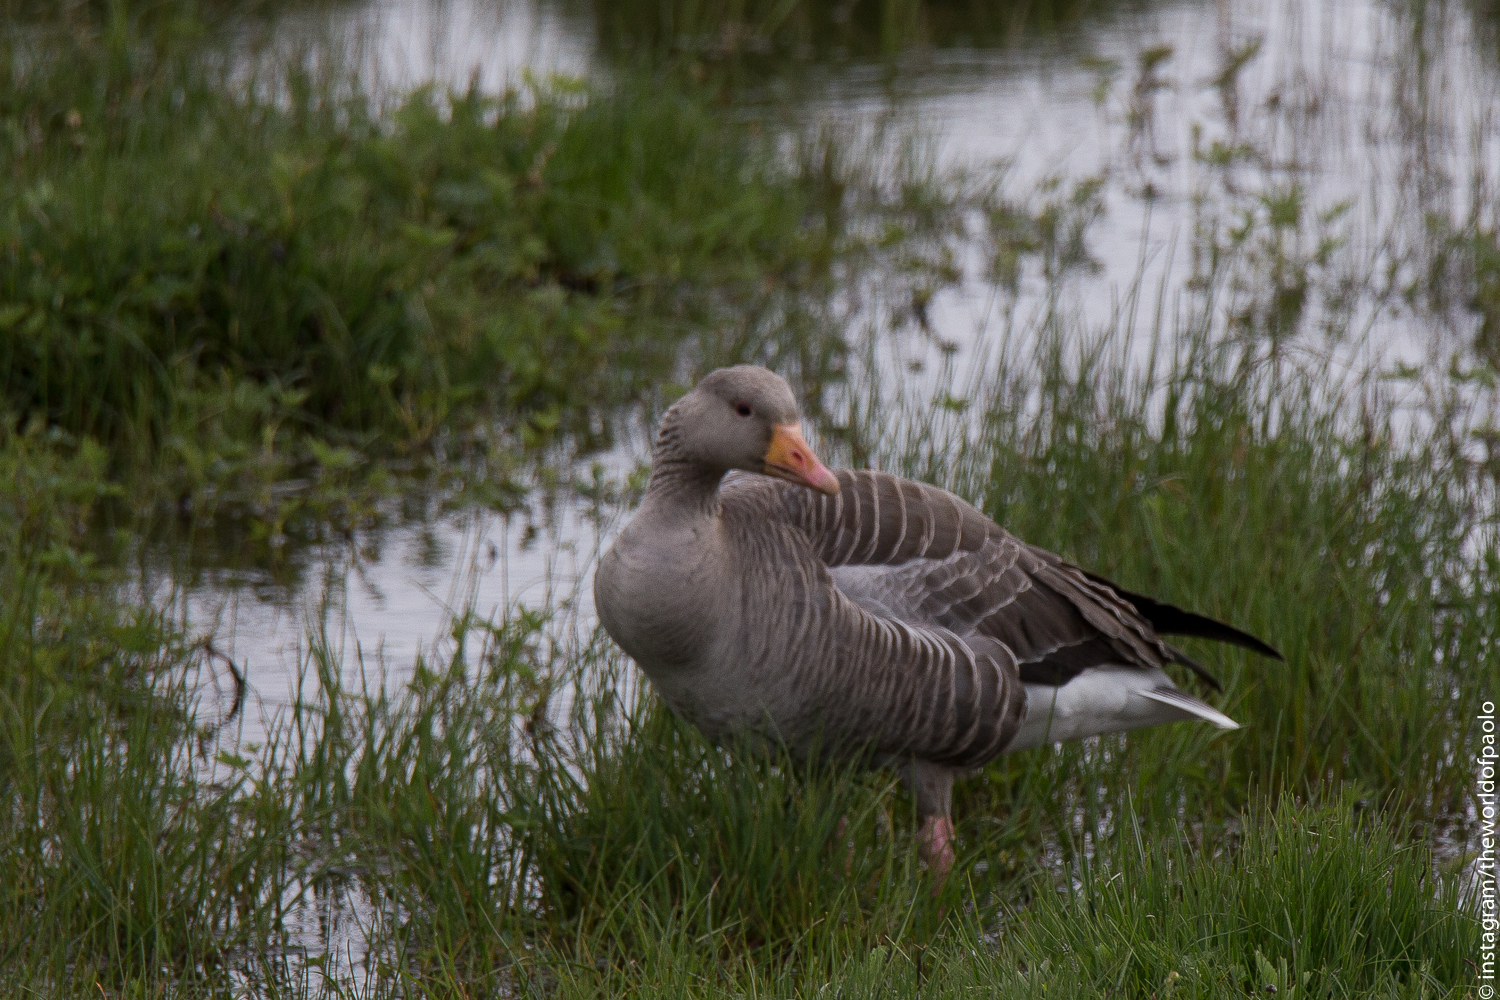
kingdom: Animalia
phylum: Chordata
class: Aves
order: Anseriformes
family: Anatidae
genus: Anser
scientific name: Anser anser
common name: Greylag goose
